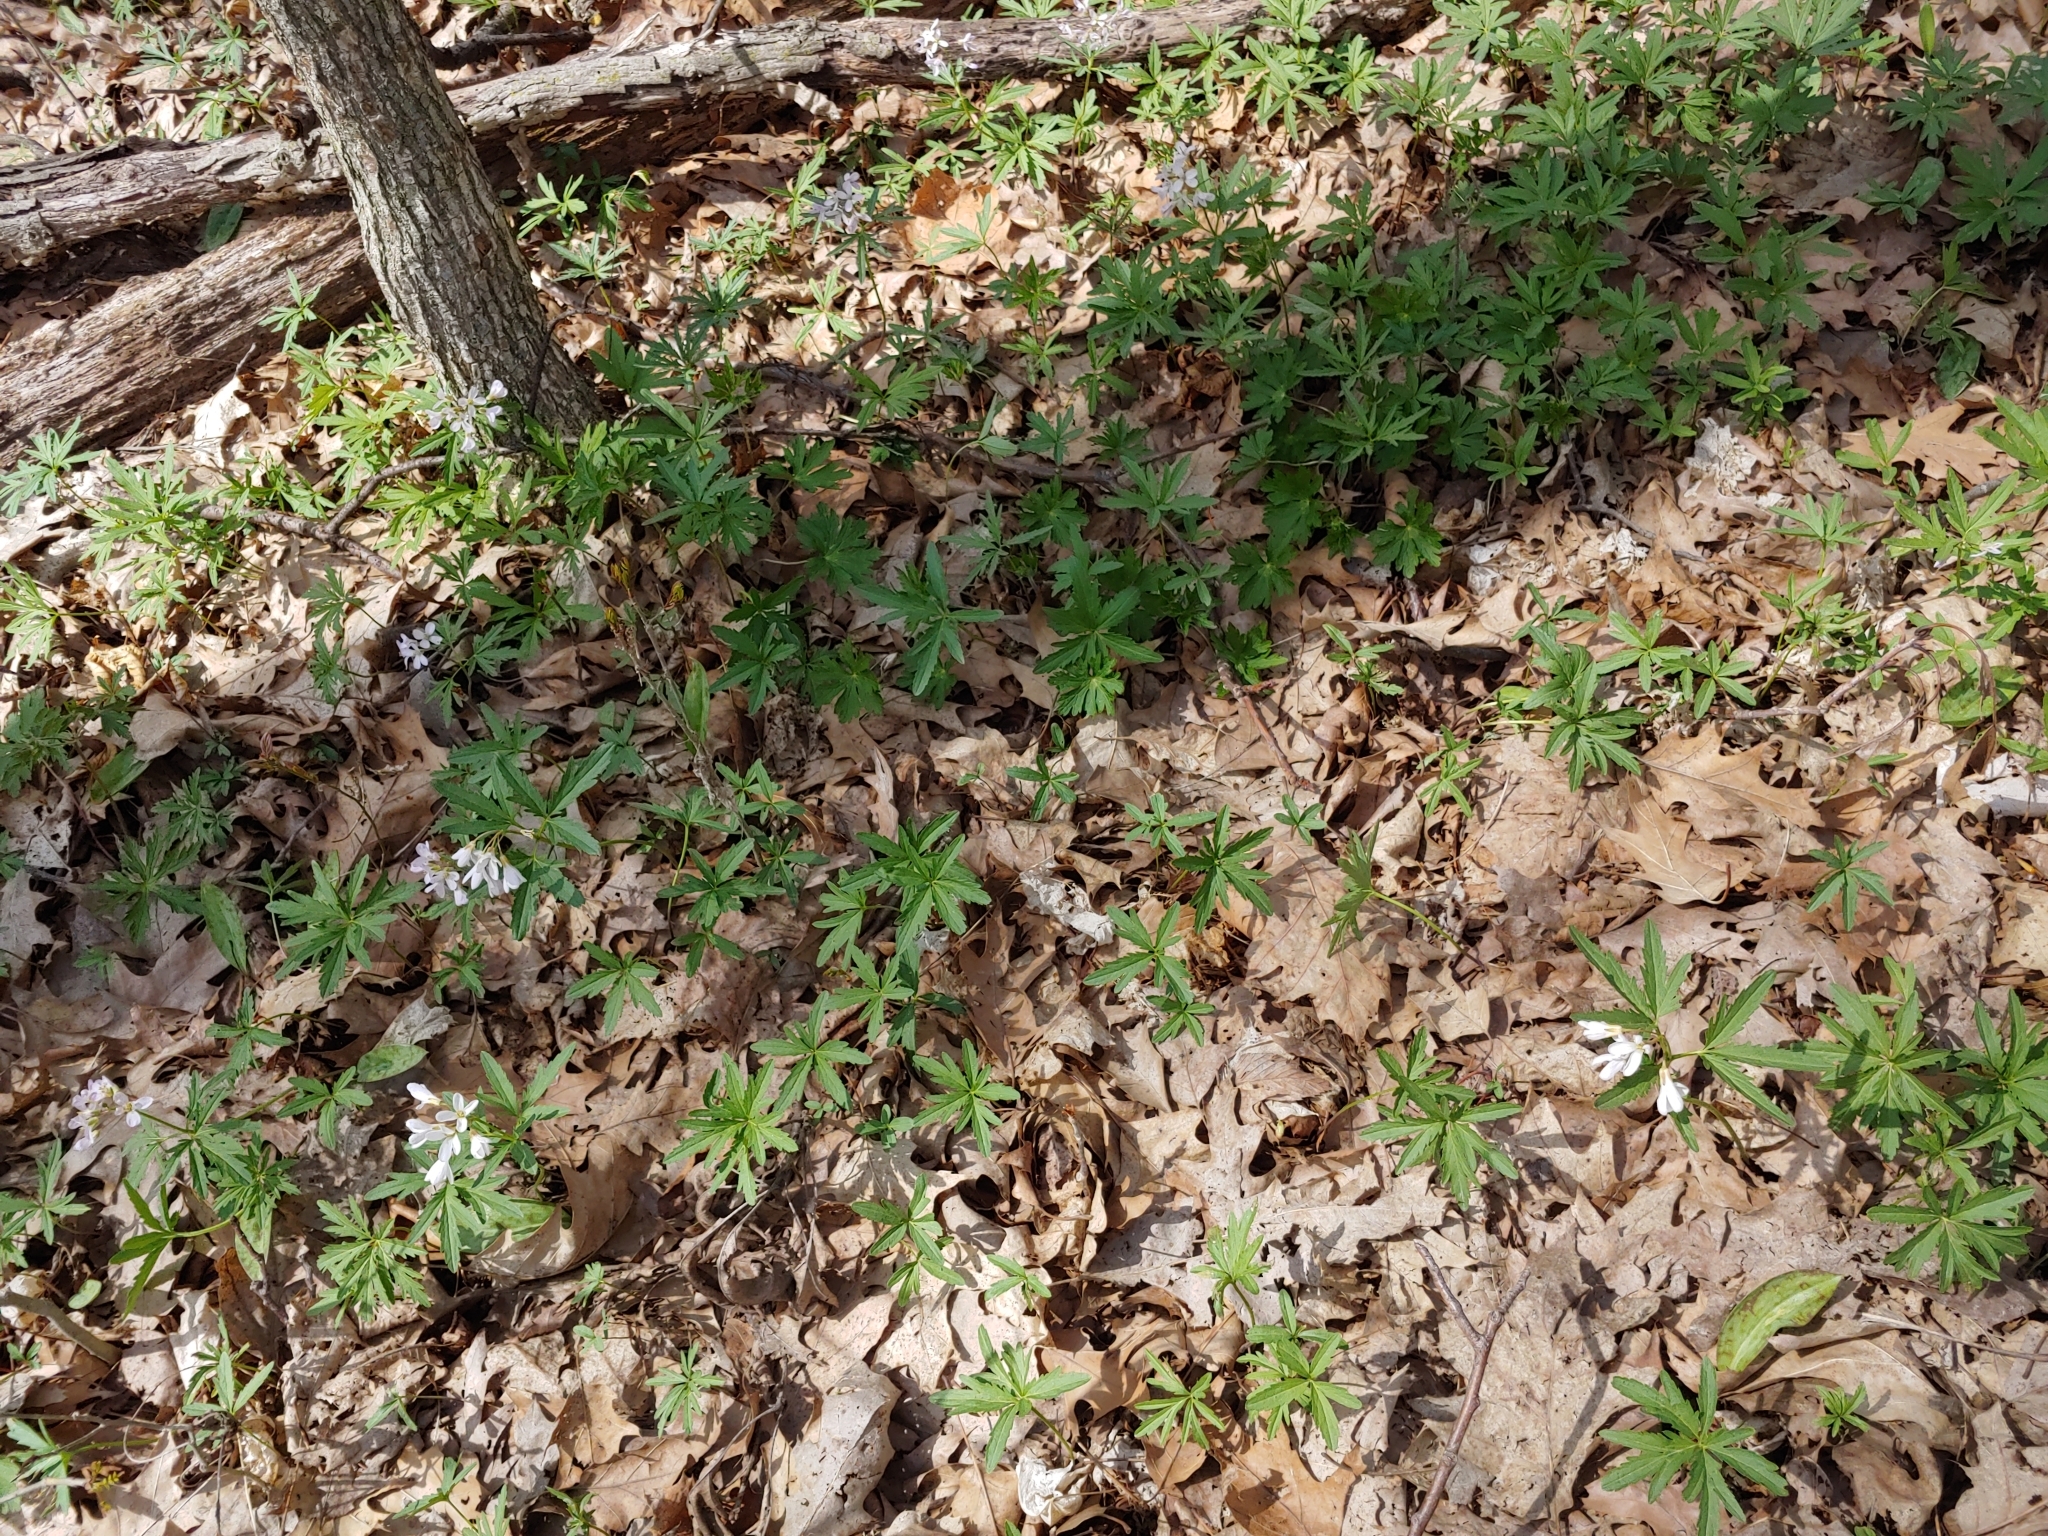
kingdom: Plantae
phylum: Tracheophyta
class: Magnoliopsida
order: Brassicales
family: Brassicaceae
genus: Cardamine
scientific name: Cardamine concatenata
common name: Cut-leaf toothcup
